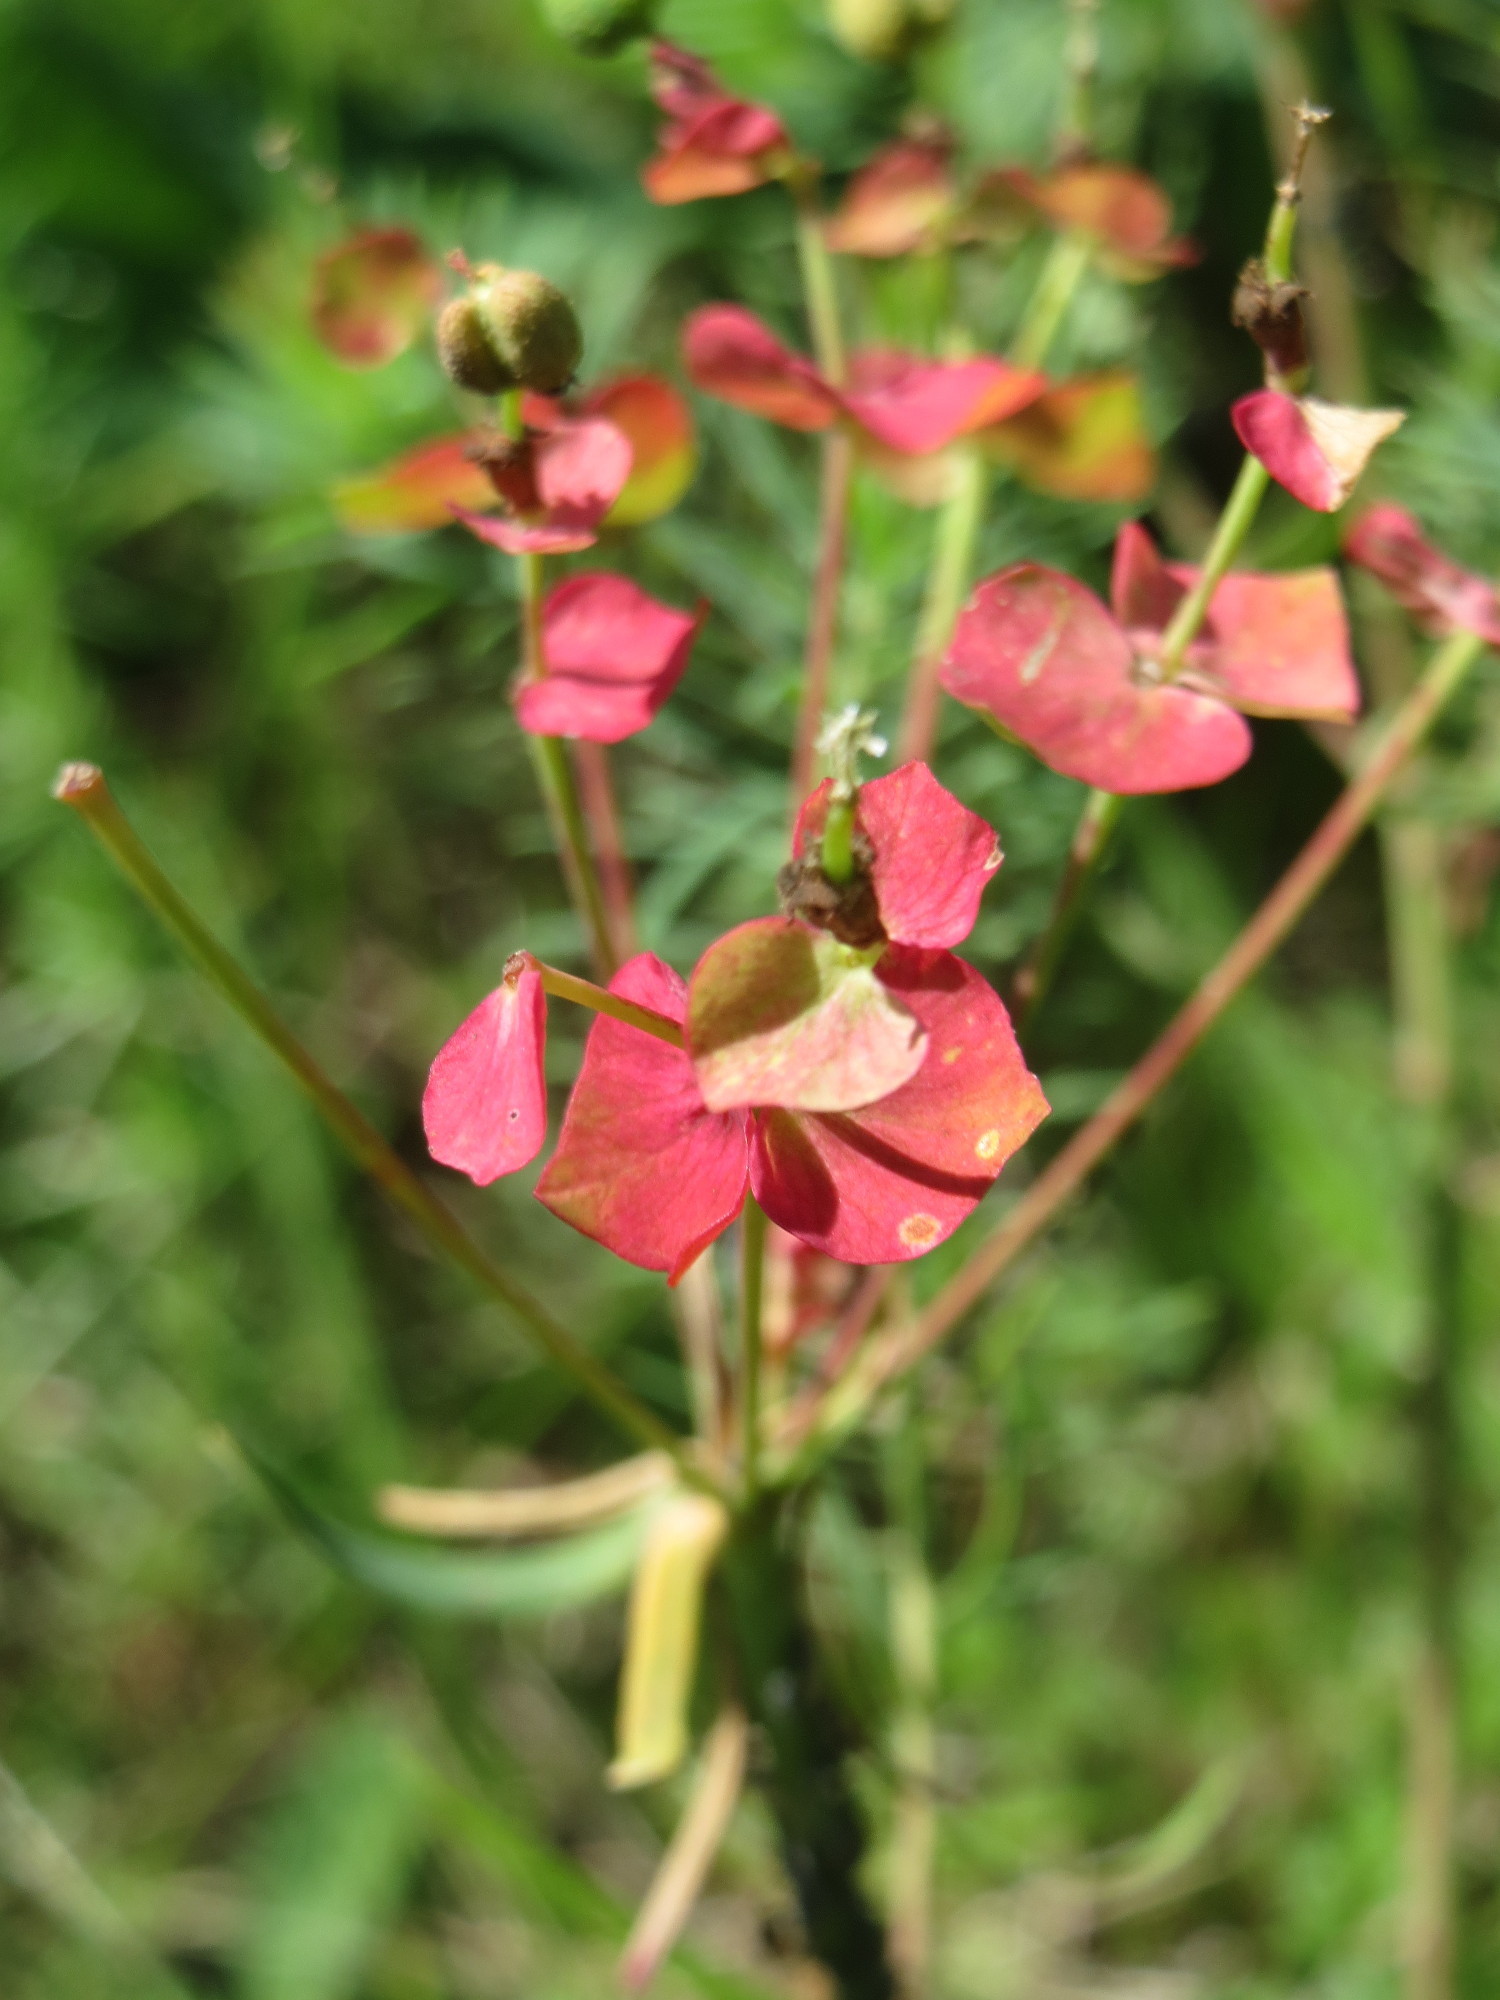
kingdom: Plantae
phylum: Tracheophyta
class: Magnoliopsida
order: Malpighiales
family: Euphorbiaceae
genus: Euphorbia
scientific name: Euphorbia cyparissias
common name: Cypress spurge
